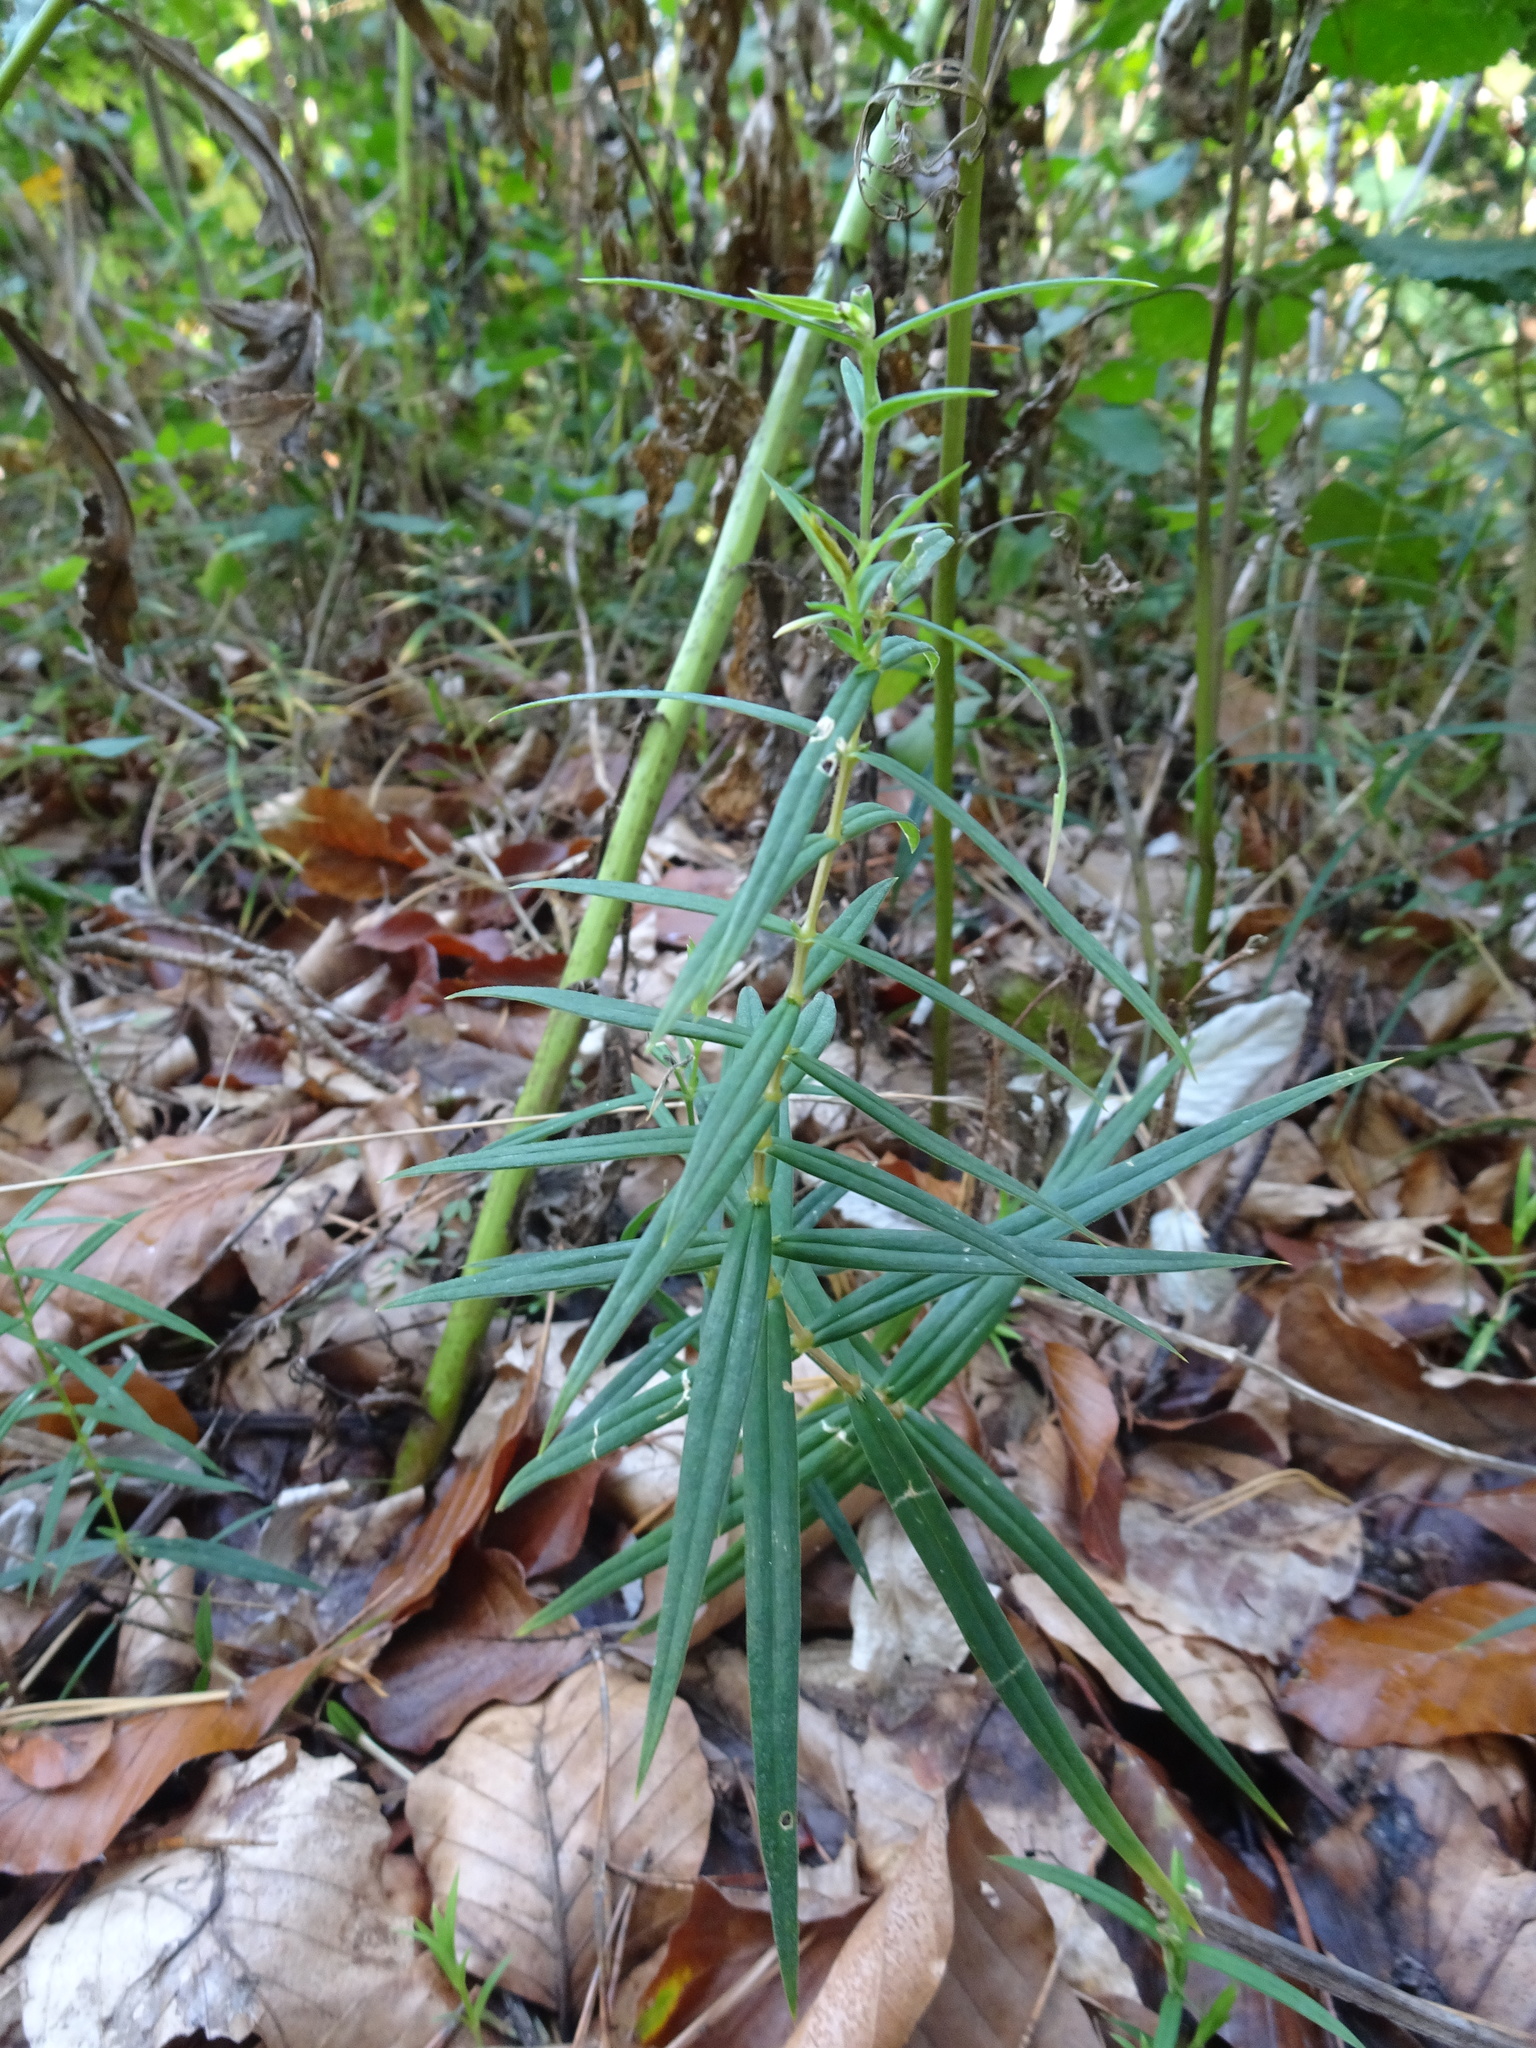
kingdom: Plantae
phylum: Tracheophyta
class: Magnoliopsida
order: Caryophyllales
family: Caryophyllaceae
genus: Rabelera
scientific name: Rabelera holostea
